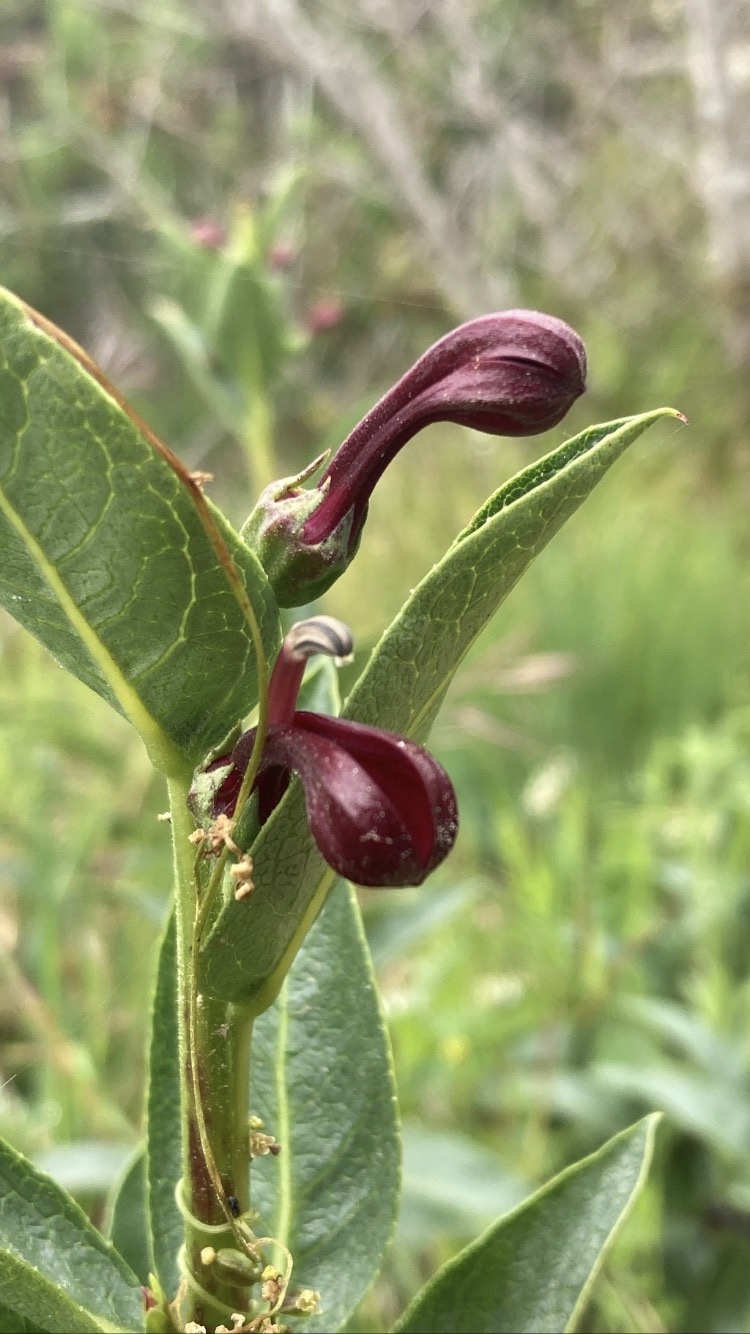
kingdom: Plantae
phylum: Tracheophyta
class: Magnoliopsida
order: Asterales
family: Campanulaceae
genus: Lobelia
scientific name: Lobelia polyphylla
